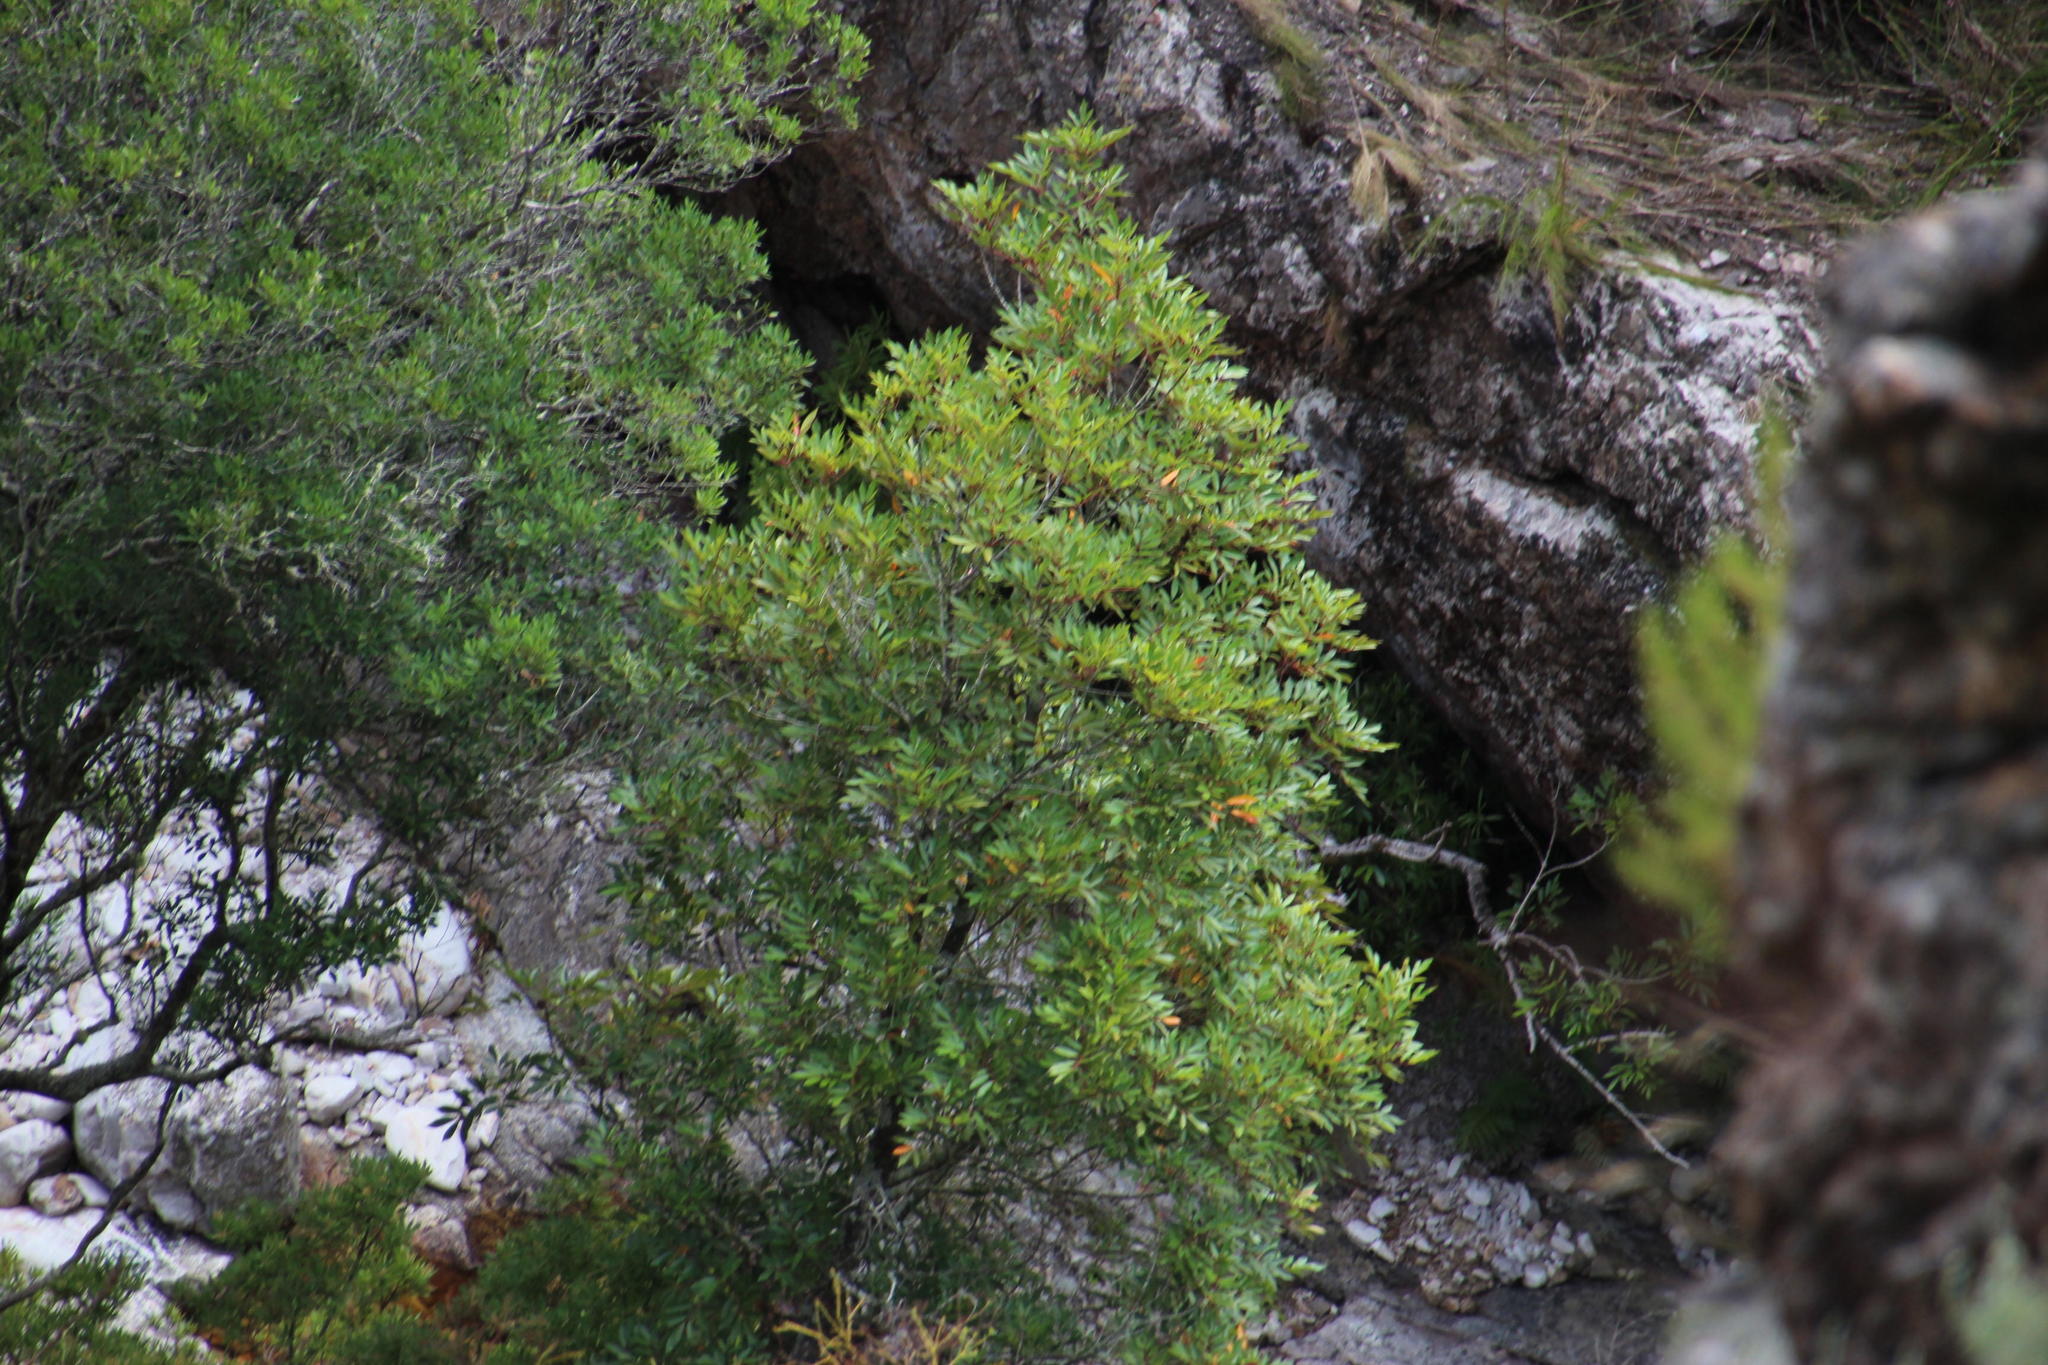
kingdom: Plantae
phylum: Tracheophyta
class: Magnoliopsida
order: Oxalidales
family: Cunoniaceae
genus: Cunonia
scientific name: Cunonia capensis
